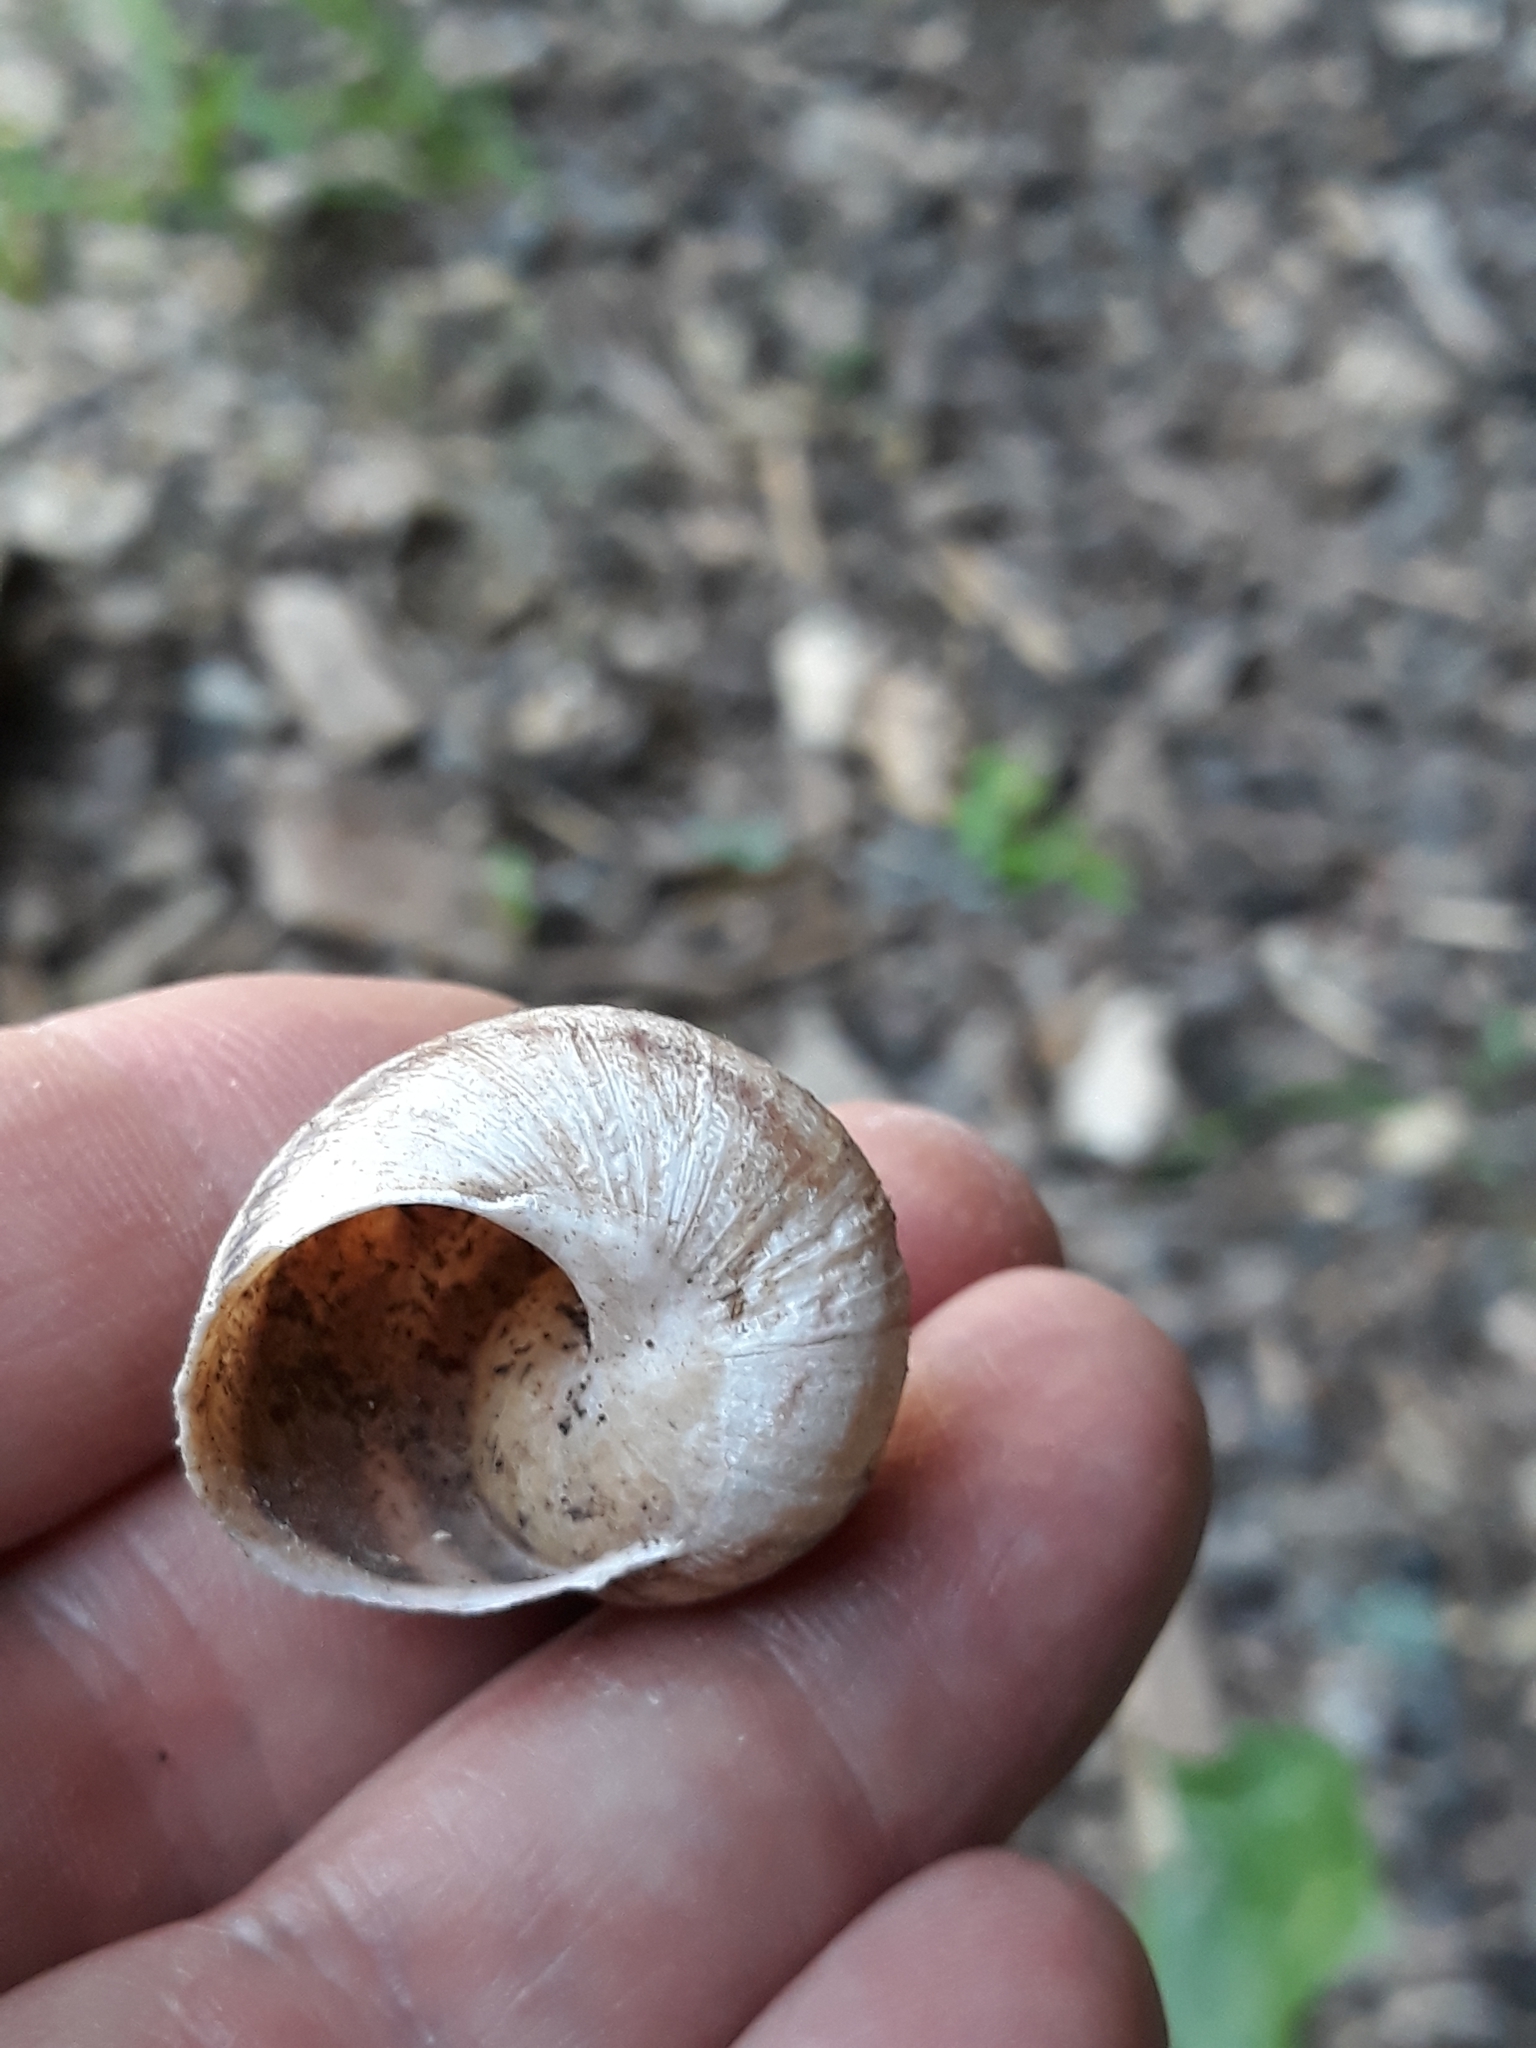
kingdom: Animalia
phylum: Mollusca
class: Gastropoda
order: Stylommatophora
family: Helicidae
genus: Cornu
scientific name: Cornu aspersum
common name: Brown garden snail
